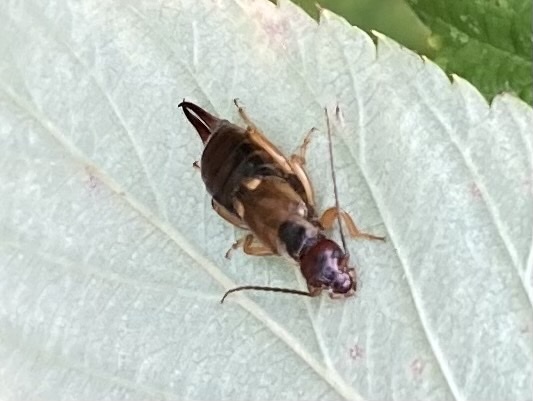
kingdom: Animalia
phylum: Arthropoda
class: Insecta
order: Dermaptera
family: Forficulidae
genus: Forficula
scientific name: Forficula
